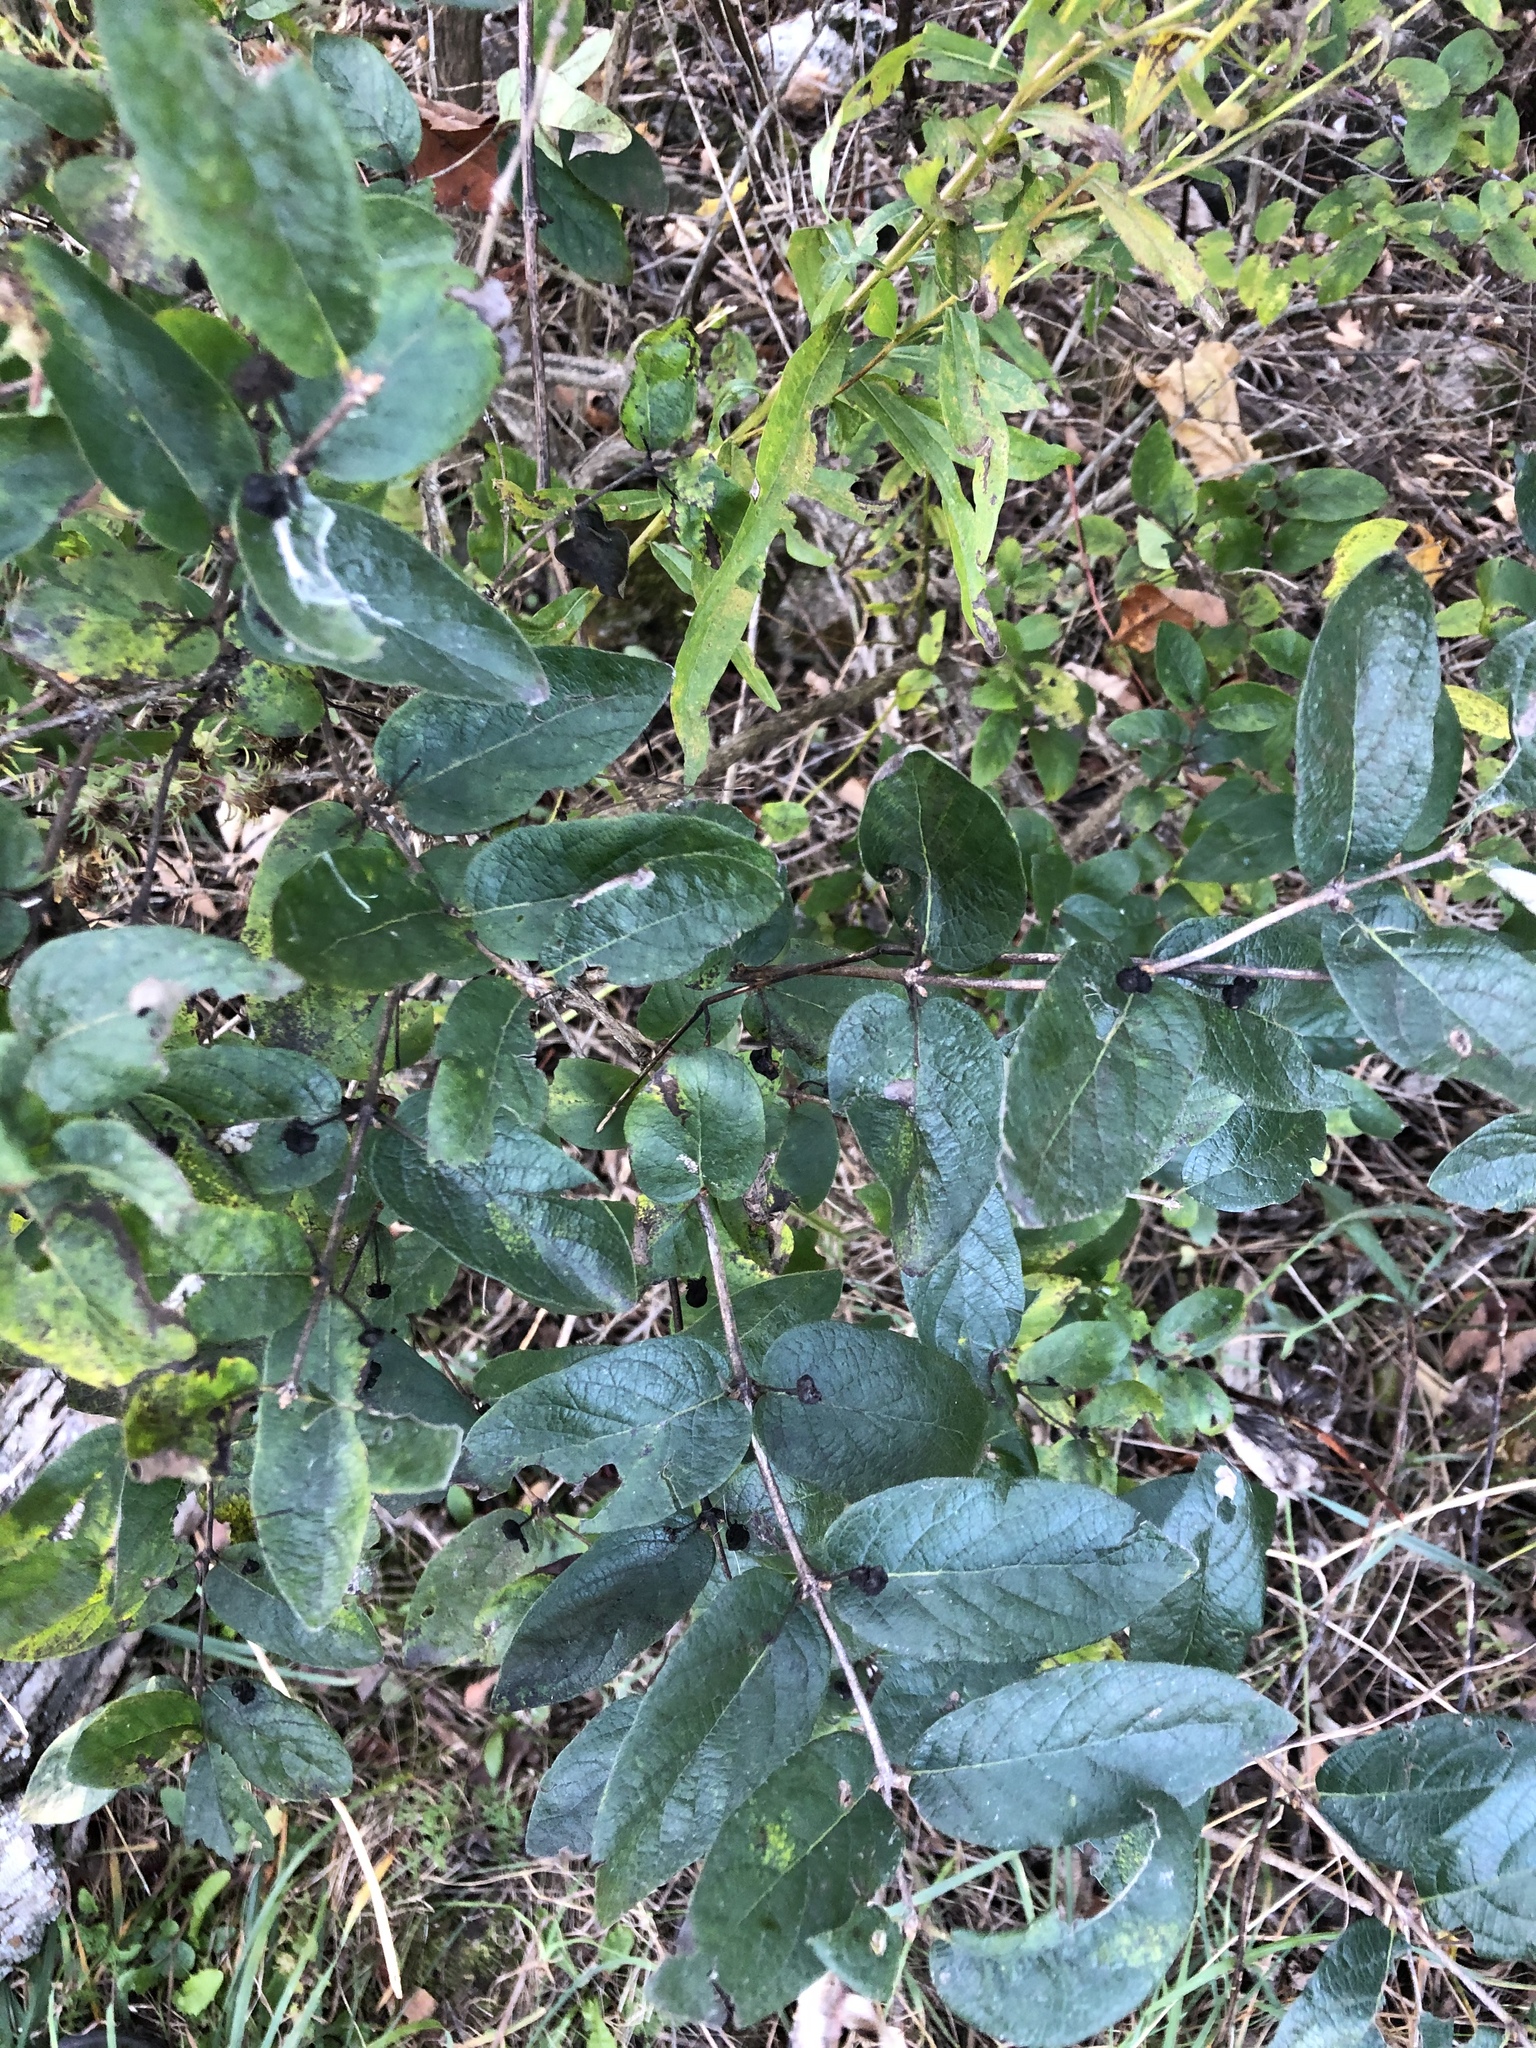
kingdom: Plantae
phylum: Tracheophyta
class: Magnoliopsida
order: Dipsacales
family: Caprifoliaceae
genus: Lonicera
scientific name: Lonicera tatarica
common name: Tatarian honeysuckle
